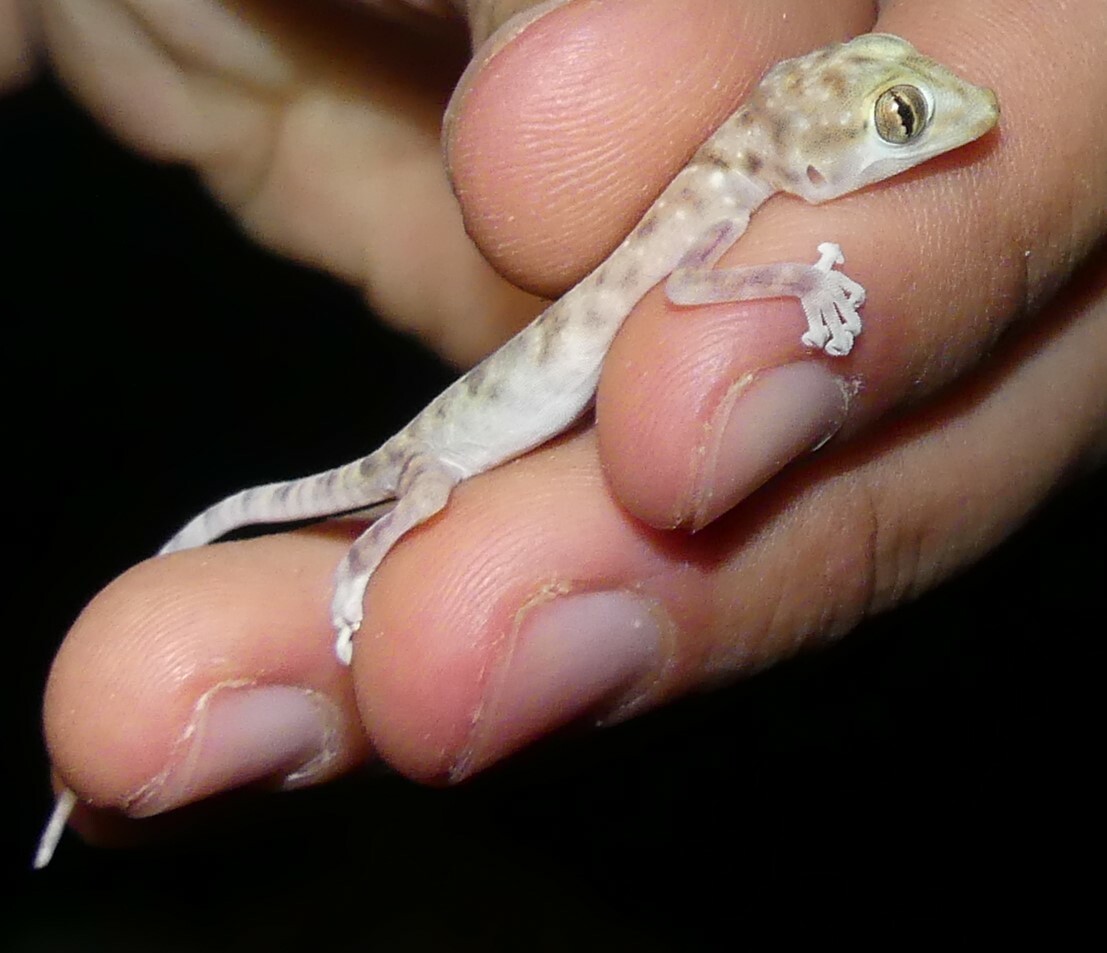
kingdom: Animalia
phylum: Chordata
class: Squamata
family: Phyllodactylidae
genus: Ptyodactylus
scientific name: Ptyodactylus hasselquistii
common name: Hasselquist’s fan-footed gecko
